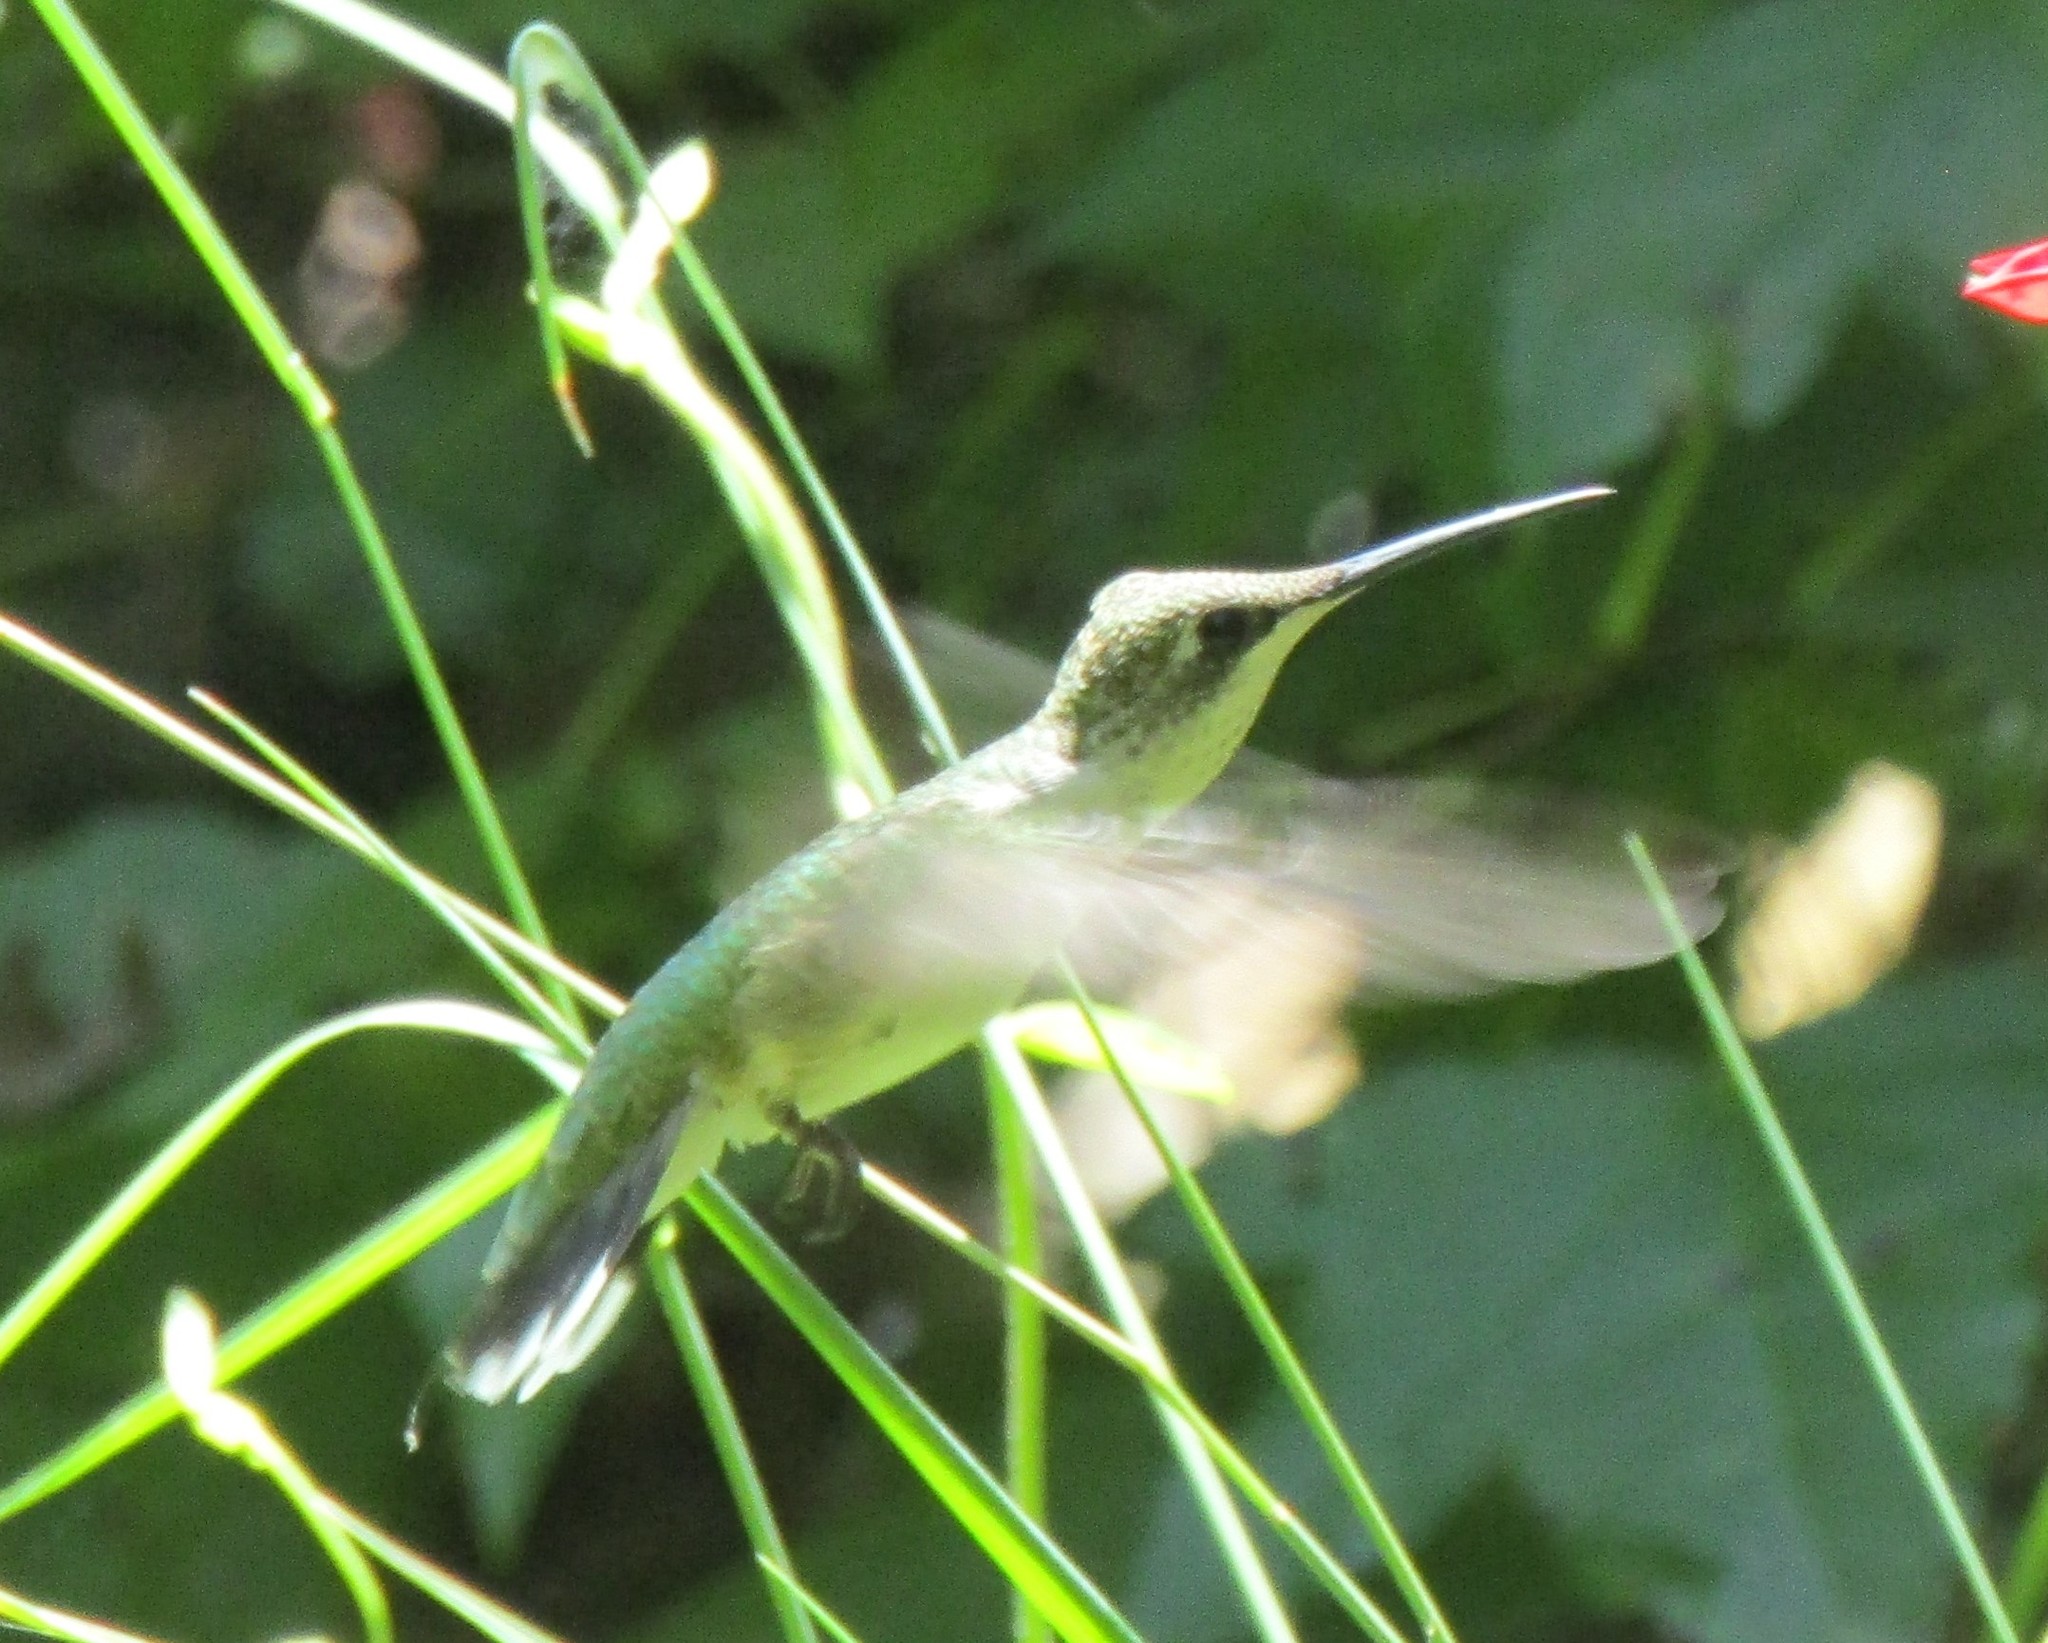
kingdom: Animalia
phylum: Chordata
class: Aves
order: Apodiformes
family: Trochilidae
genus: Archilochus
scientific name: Archilochus colubris
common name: Ruby-throated hummingbird
